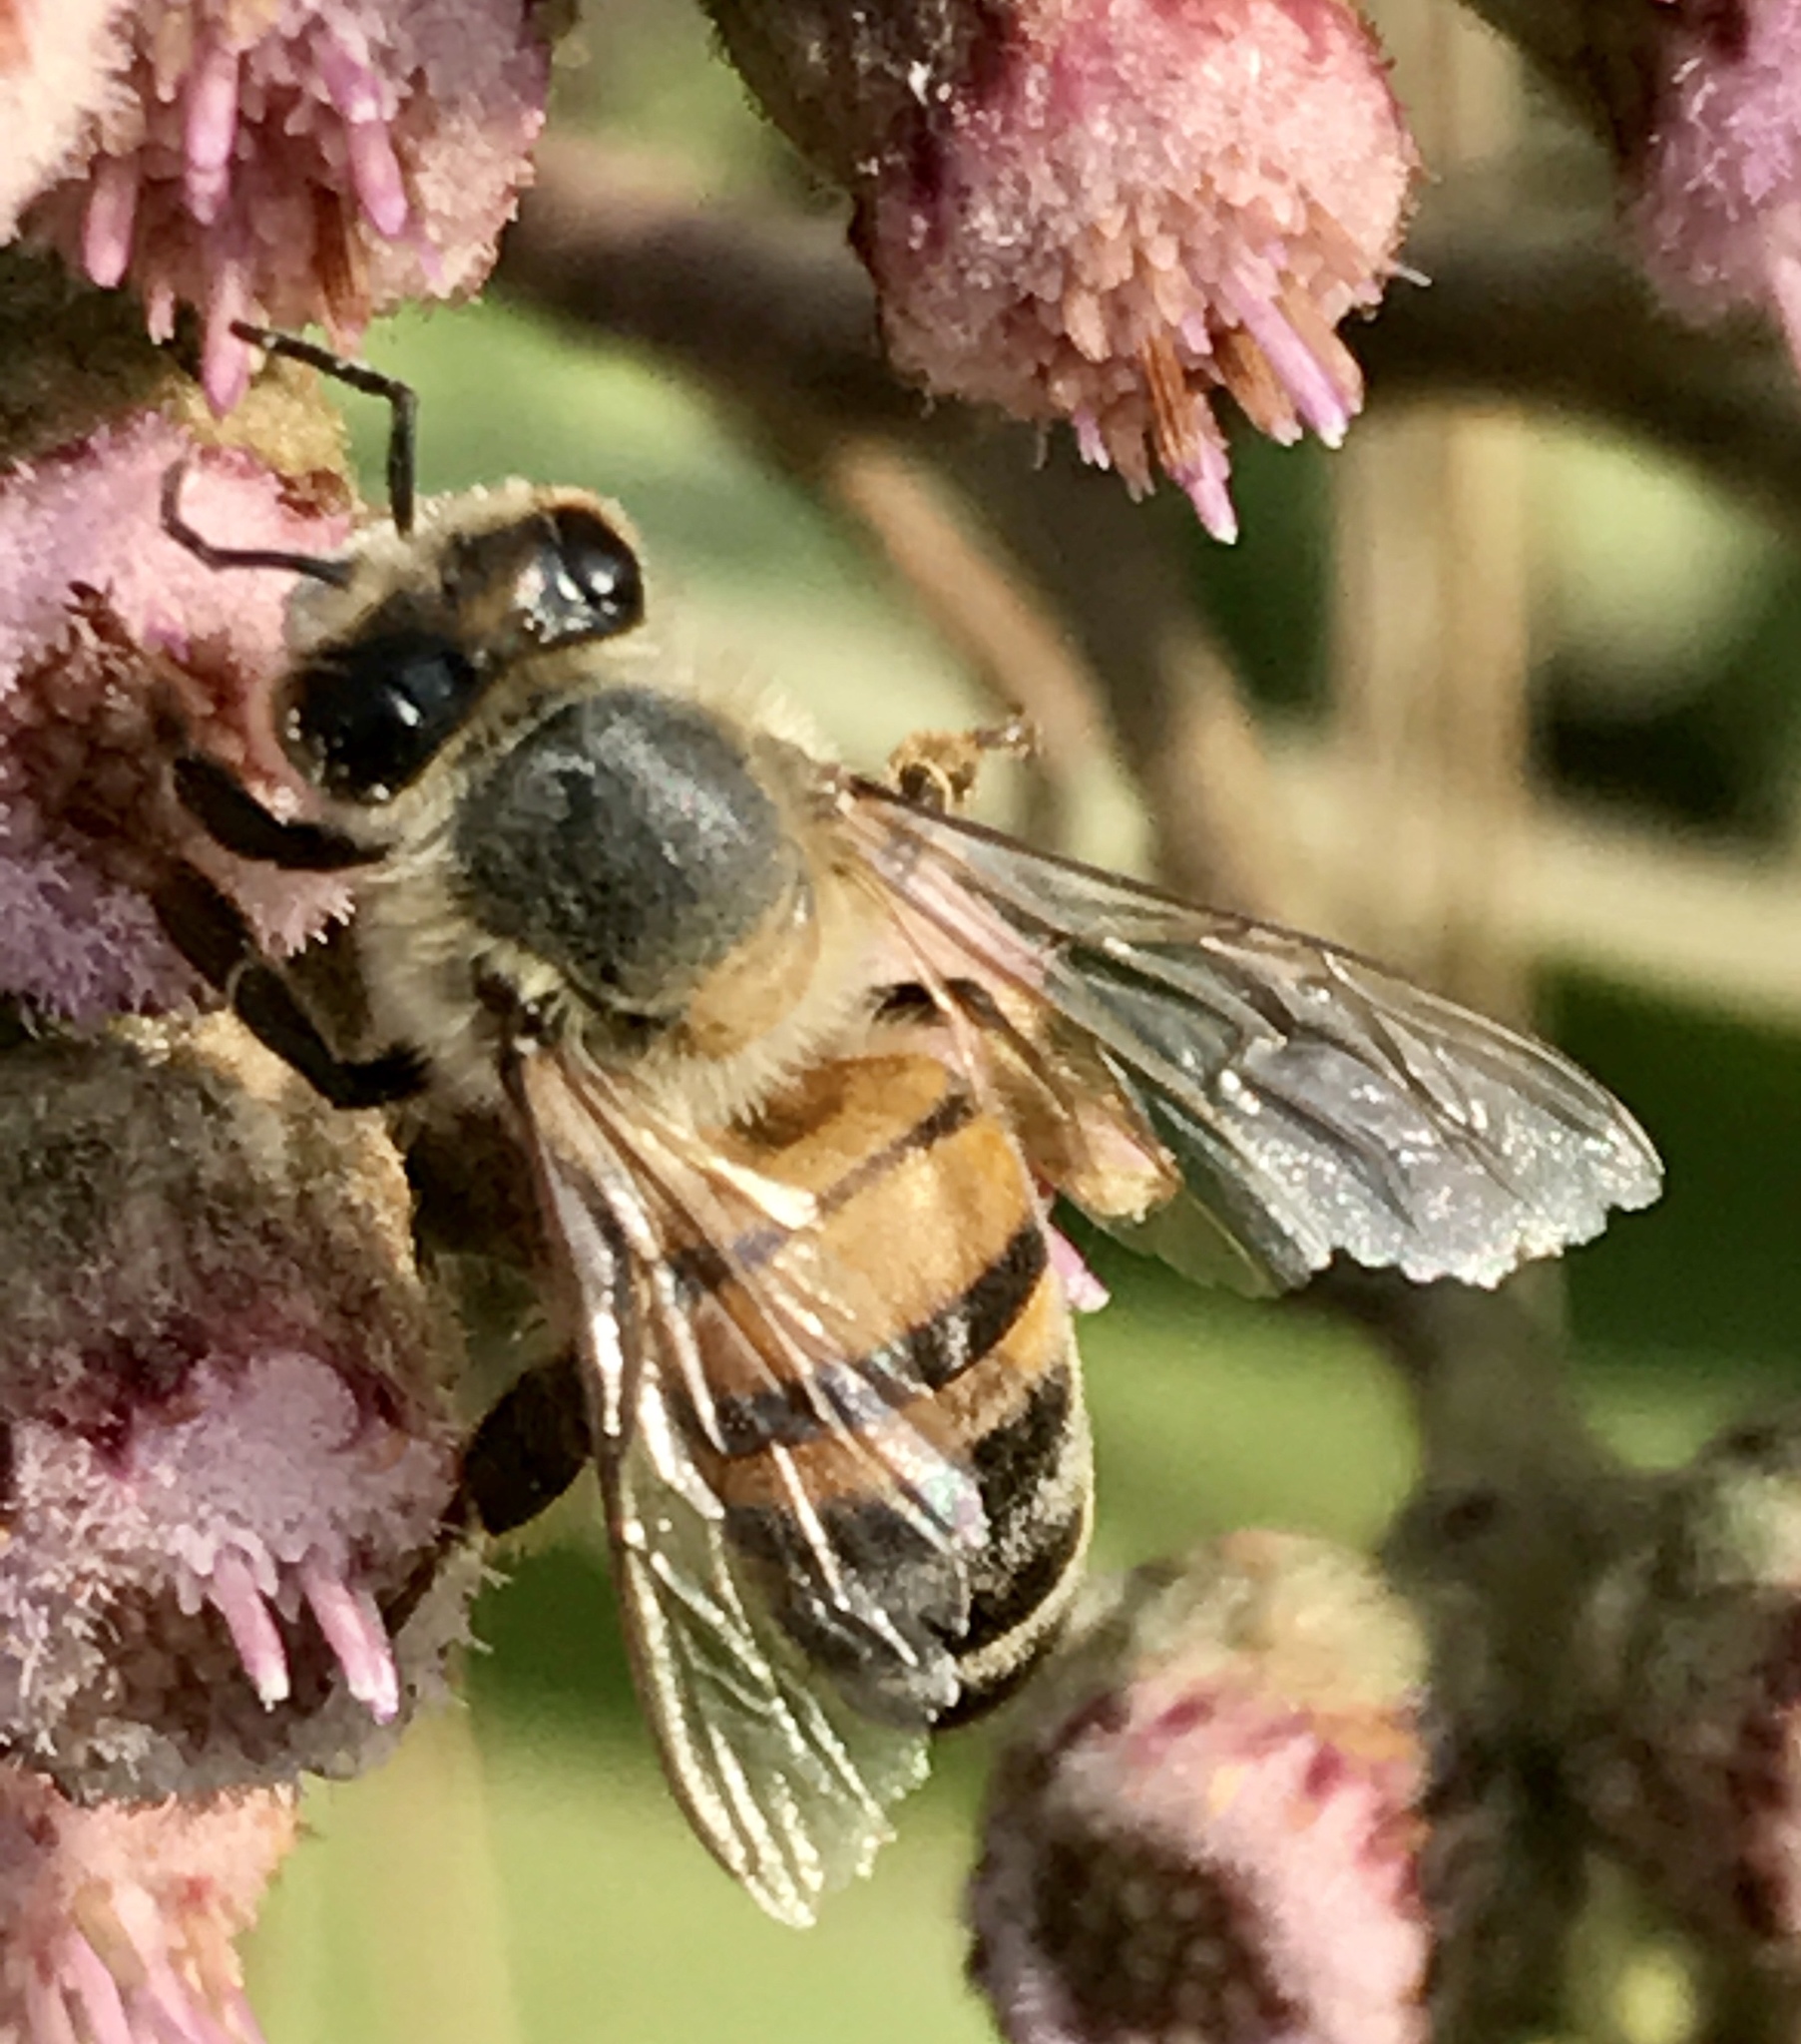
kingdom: Animalia
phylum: Arthropoda
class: Insecta
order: Hymenoptera
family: Apidae
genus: Apis
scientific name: Apis mellifera
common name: Honey bee
